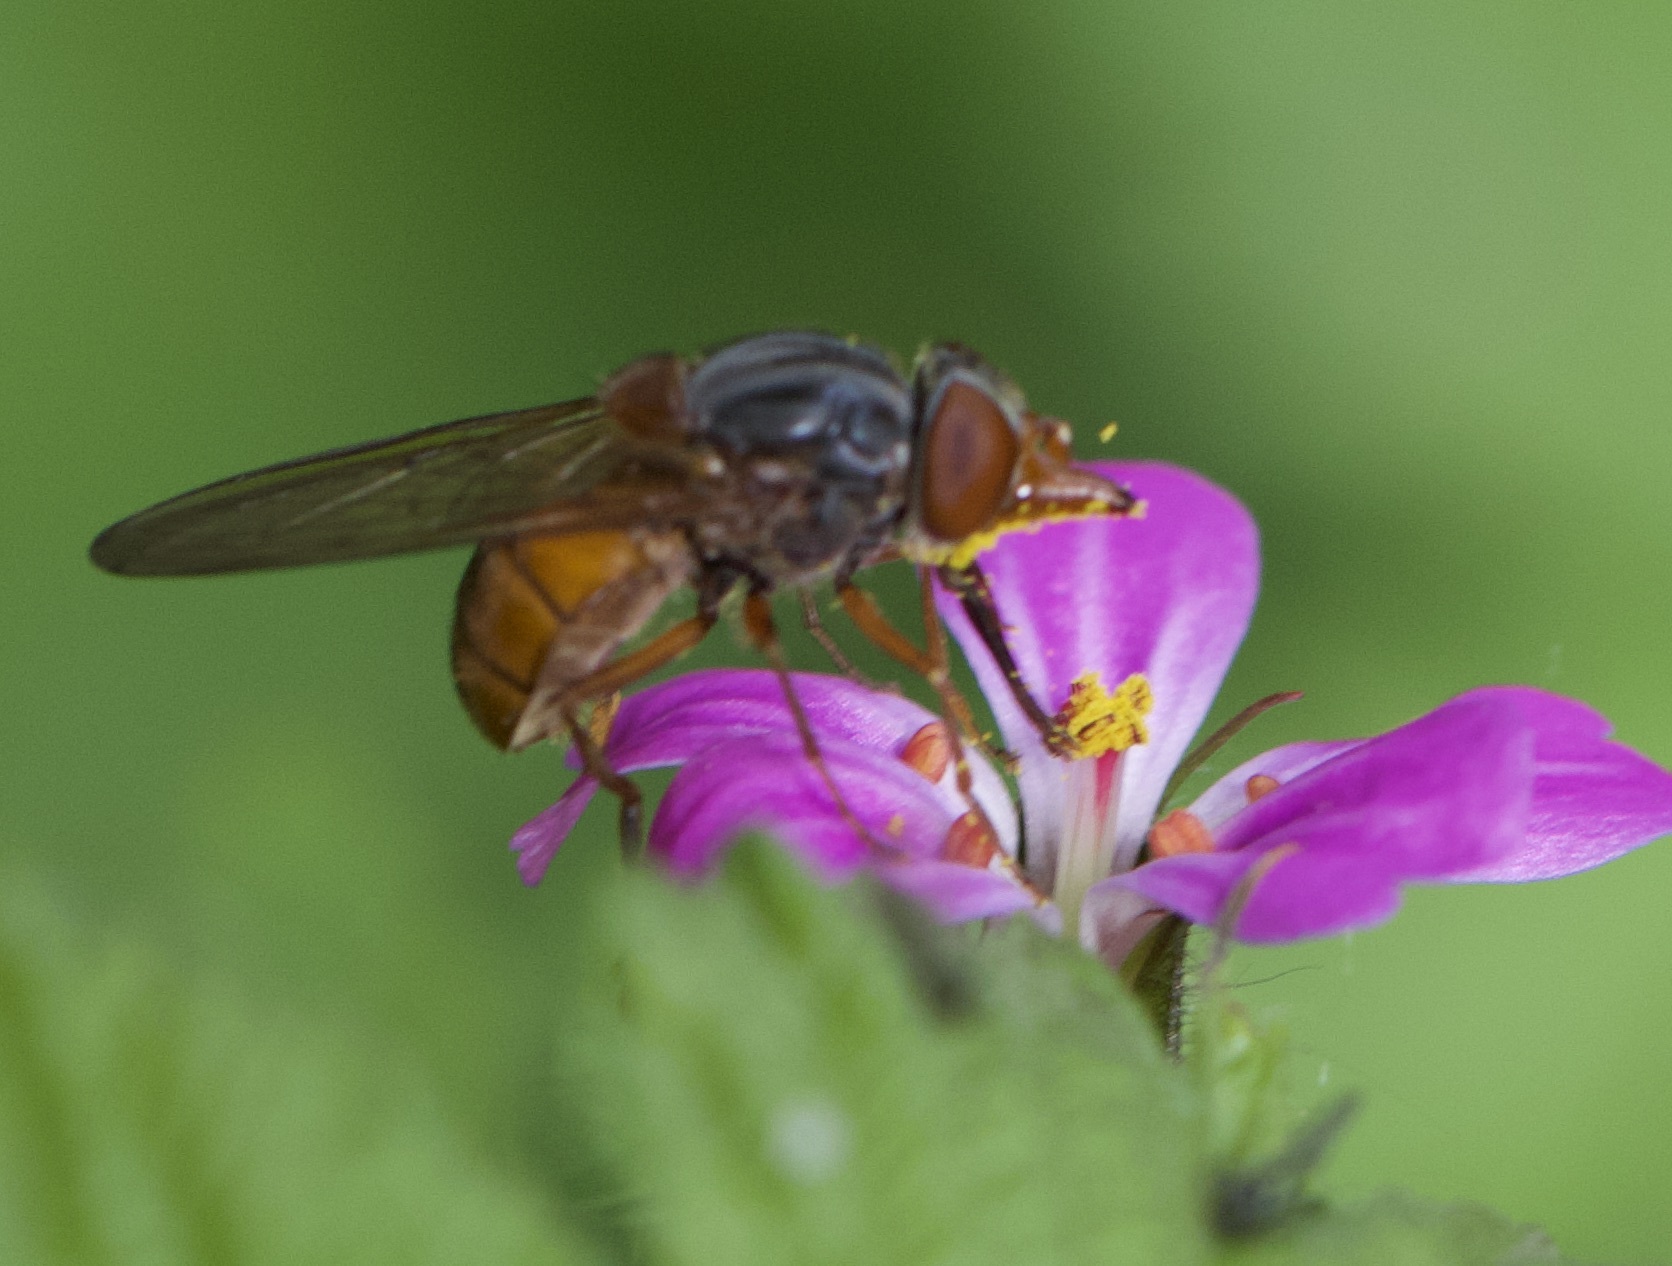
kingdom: Animalia
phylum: Arthropoda
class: Insecta
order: Diptera
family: Syrphidae
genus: Rhingia
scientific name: Rhingia campestris
